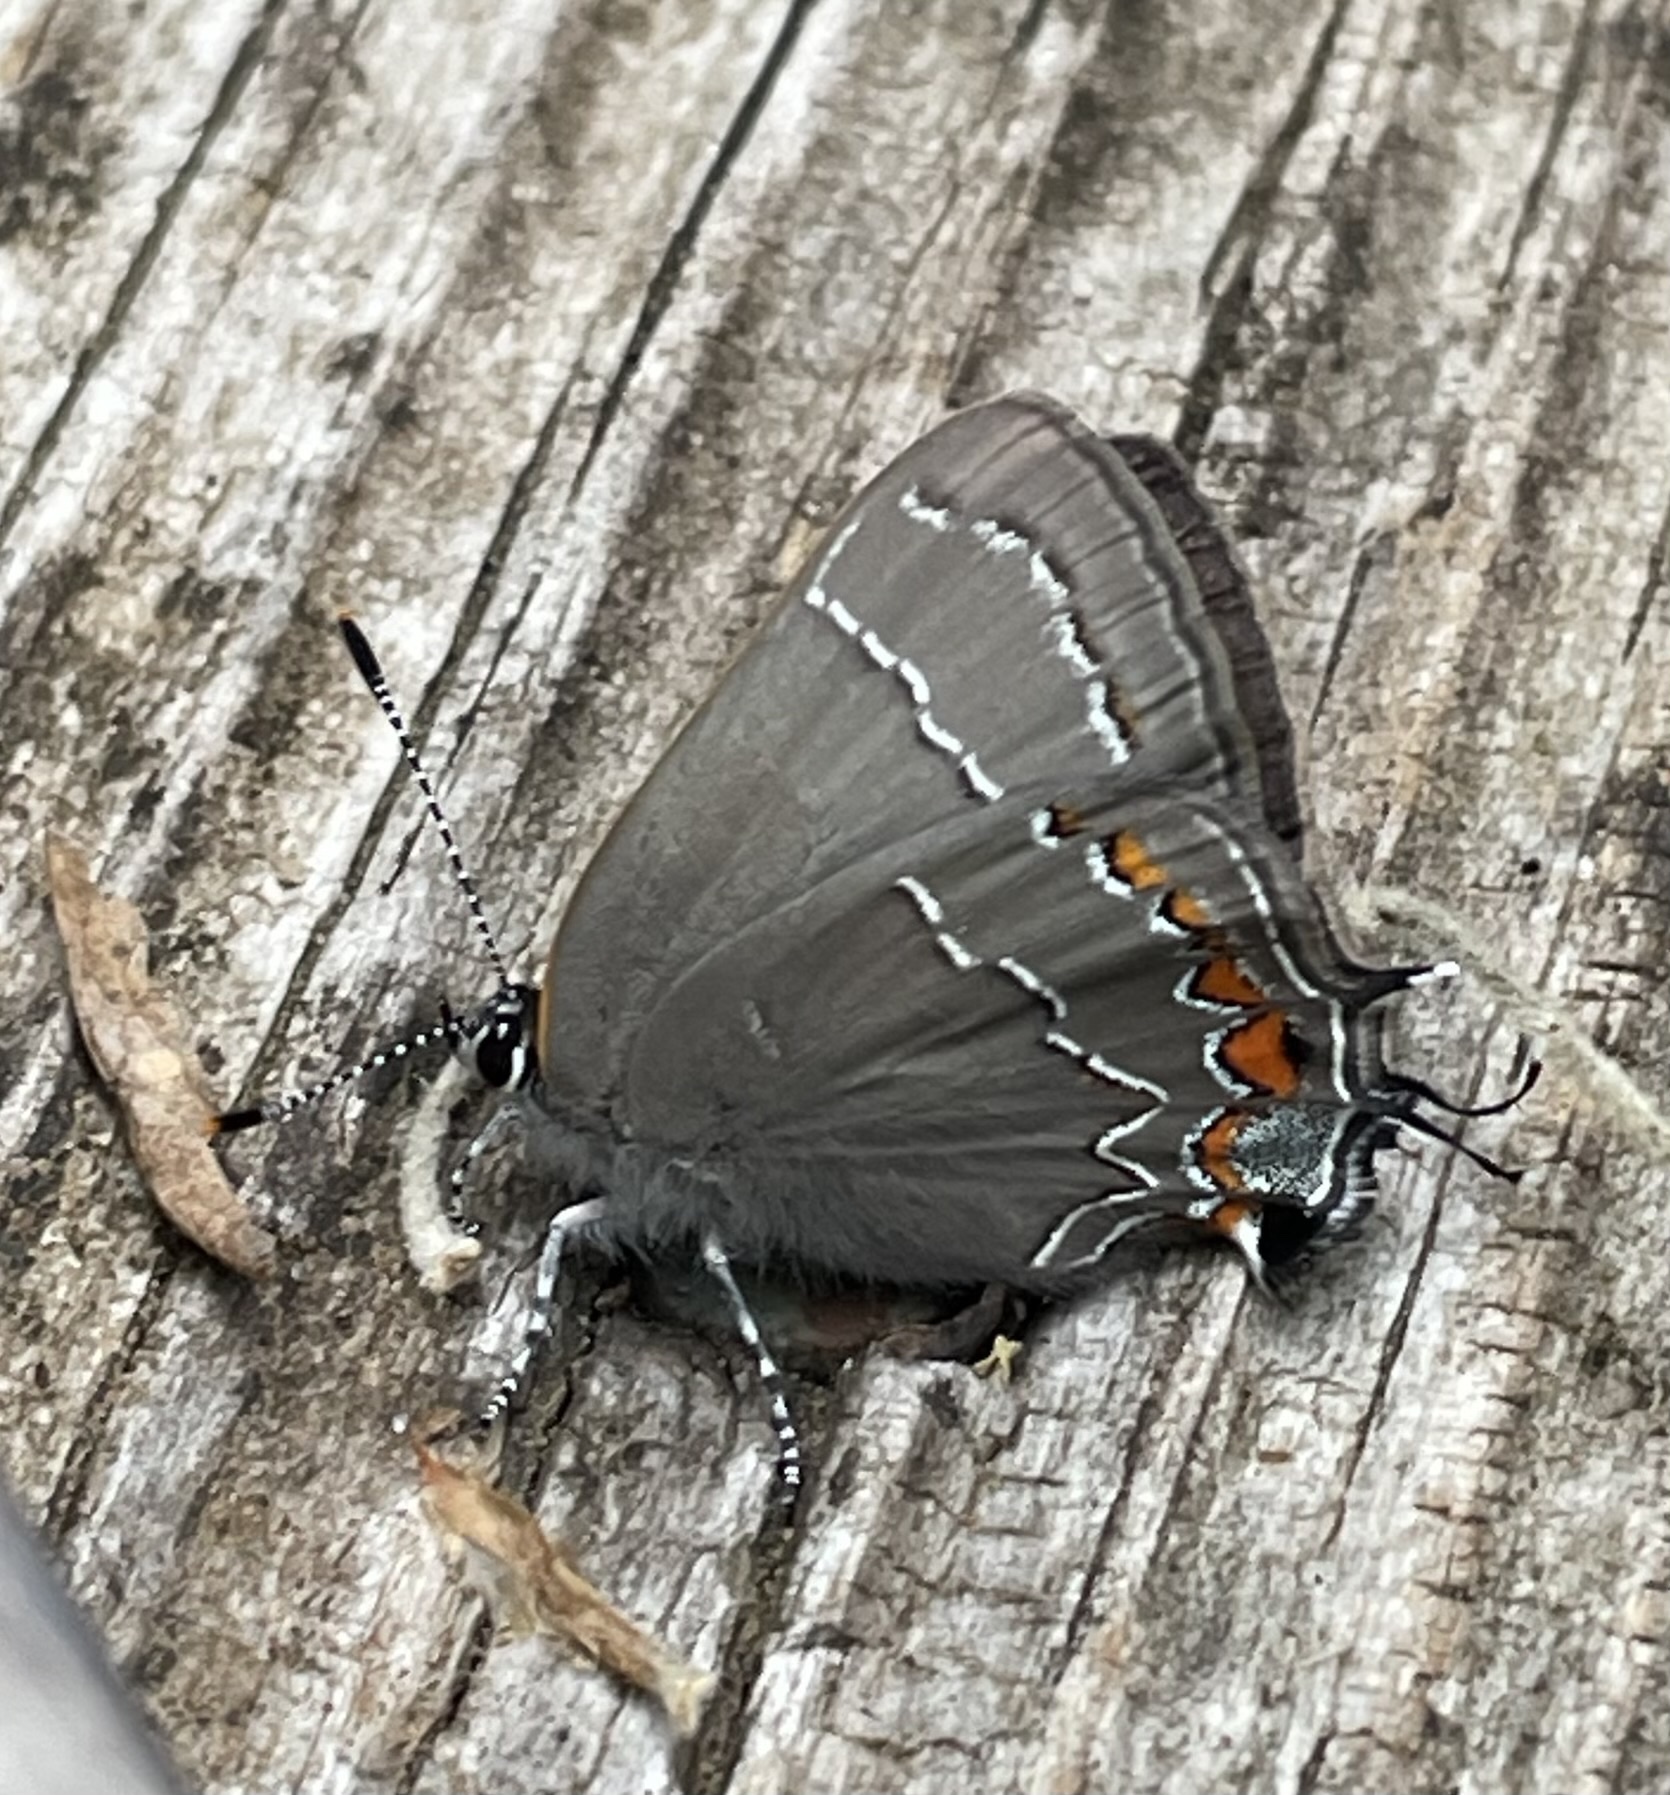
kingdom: Animalia
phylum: Arthropoda
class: Insecta
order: Lepidoptera
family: Lycaenidae
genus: Fixsenia
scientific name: Fixsenia favonius
